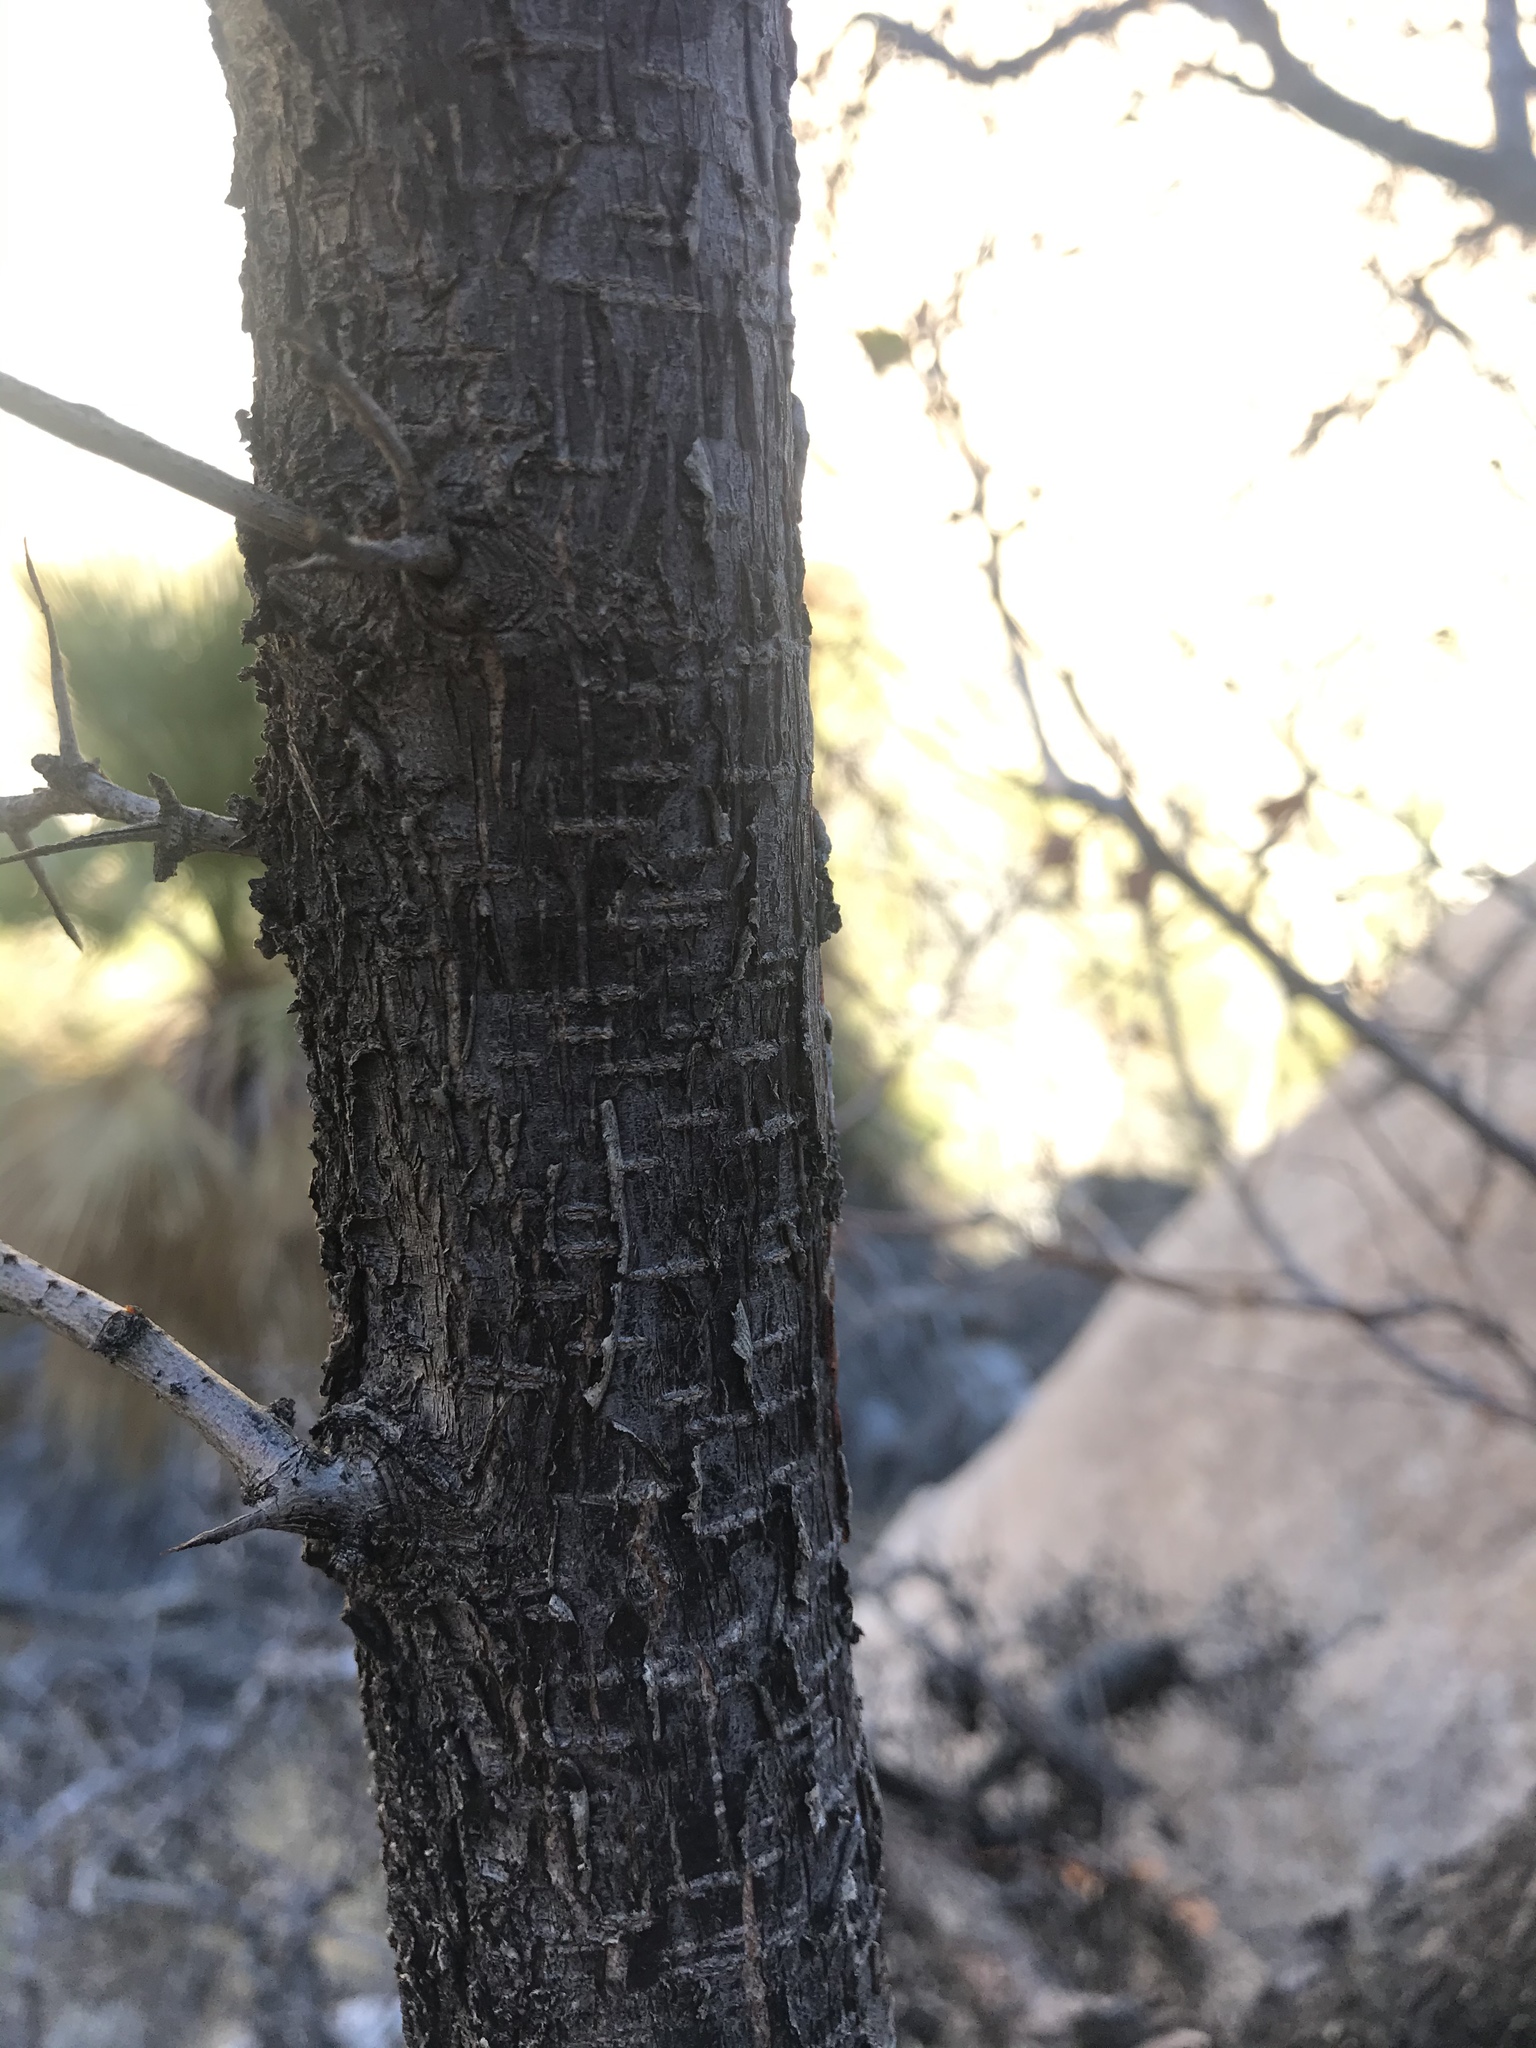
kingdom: Plantae
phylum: Tracheophyta
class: Magnoliopsida
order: Rosales
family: Rosaceae
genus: Prunus
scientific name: Prunus fremontii
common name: Desert apricot
